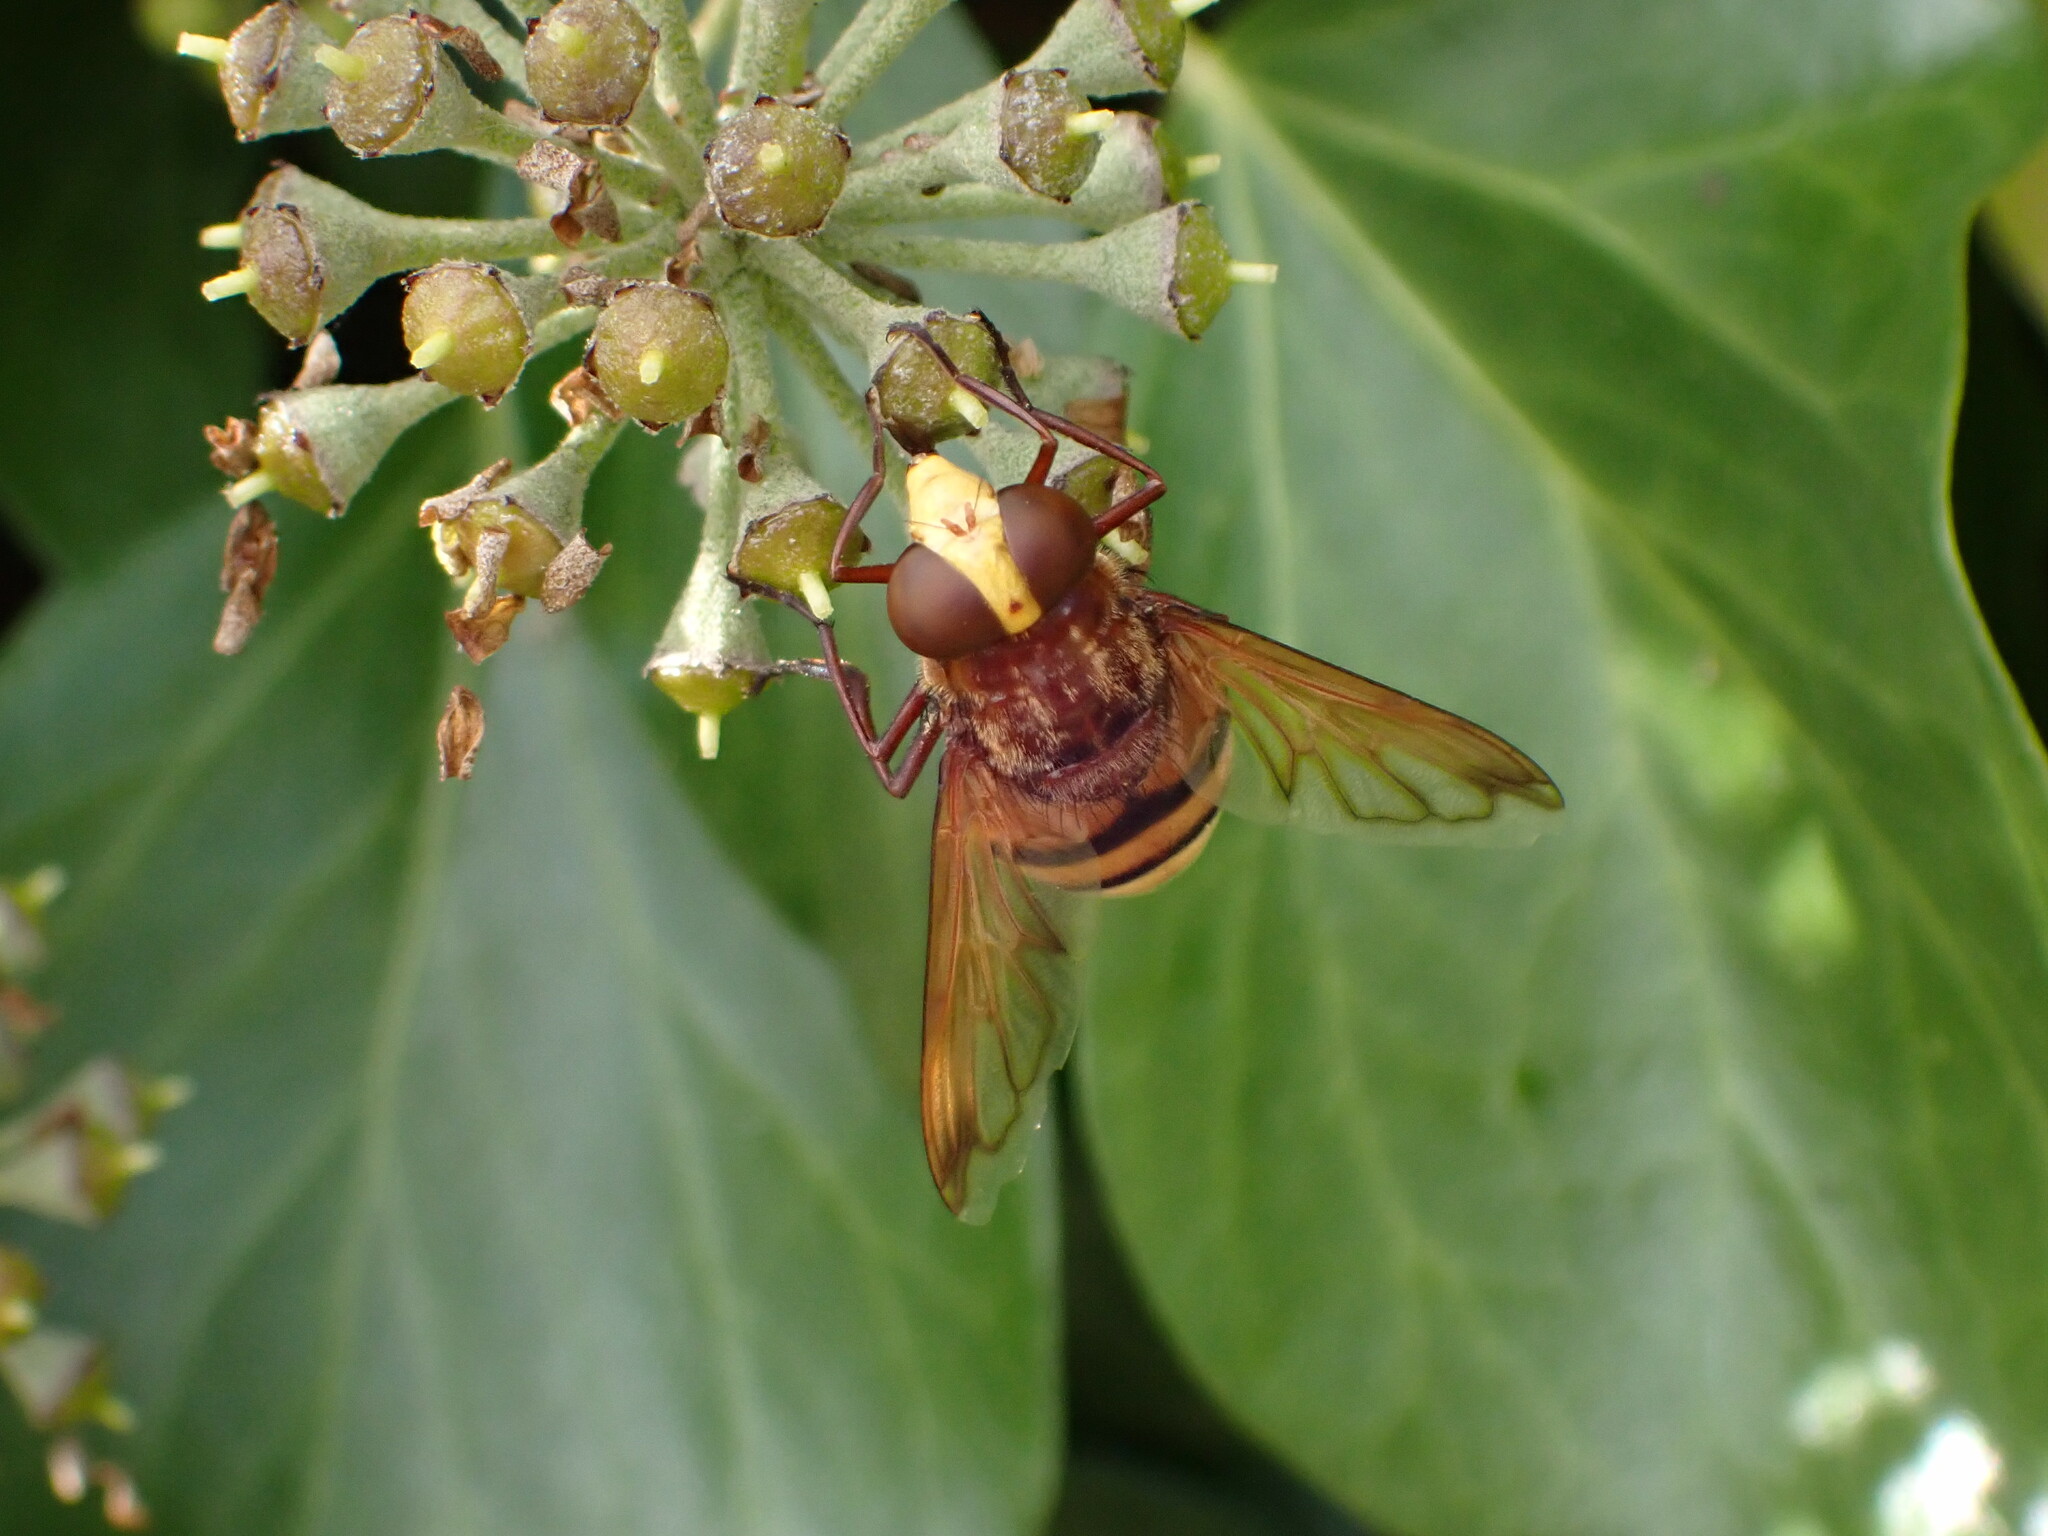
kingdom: Animalia
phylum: Arthropoda
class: Insecta
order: Diptera
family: Syrphidae
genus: Volucella
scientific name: Volucella zonaria
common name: Hornet hoverfly
